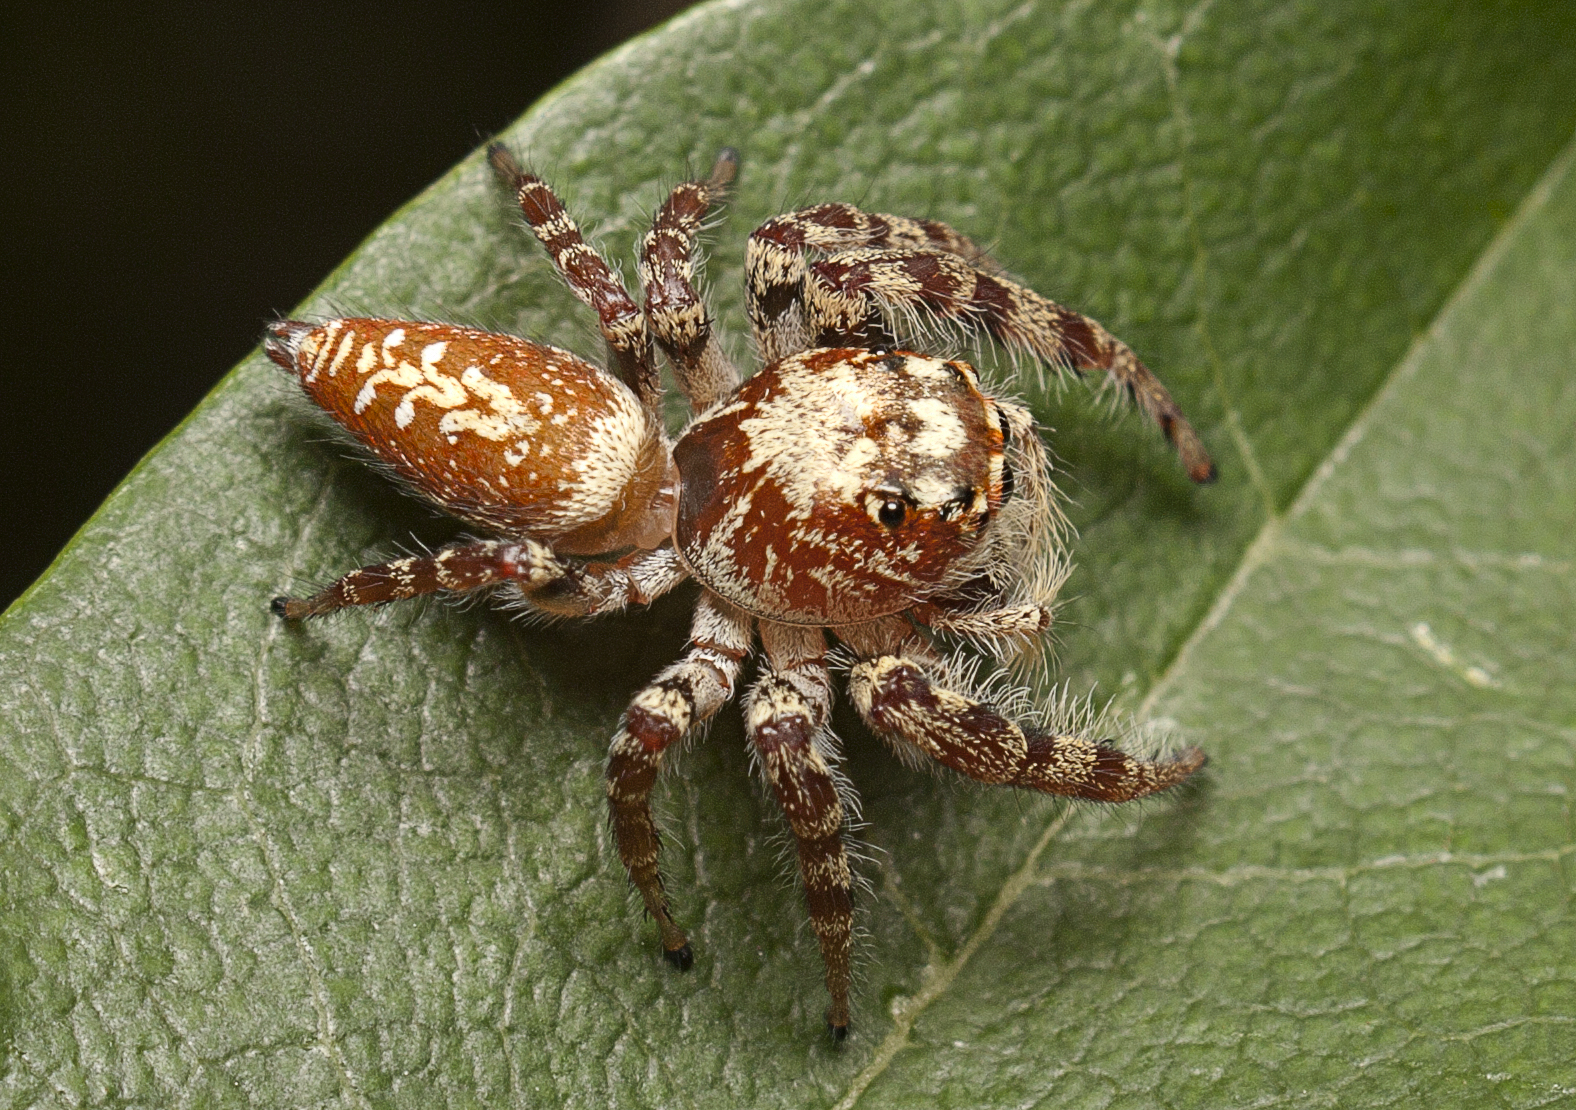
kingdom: Animalia
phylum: Arthropoda
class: Arachnida
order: Araneae
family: Salticidae
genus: Opisthoncus
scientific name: Opisthoncus quadratarius
